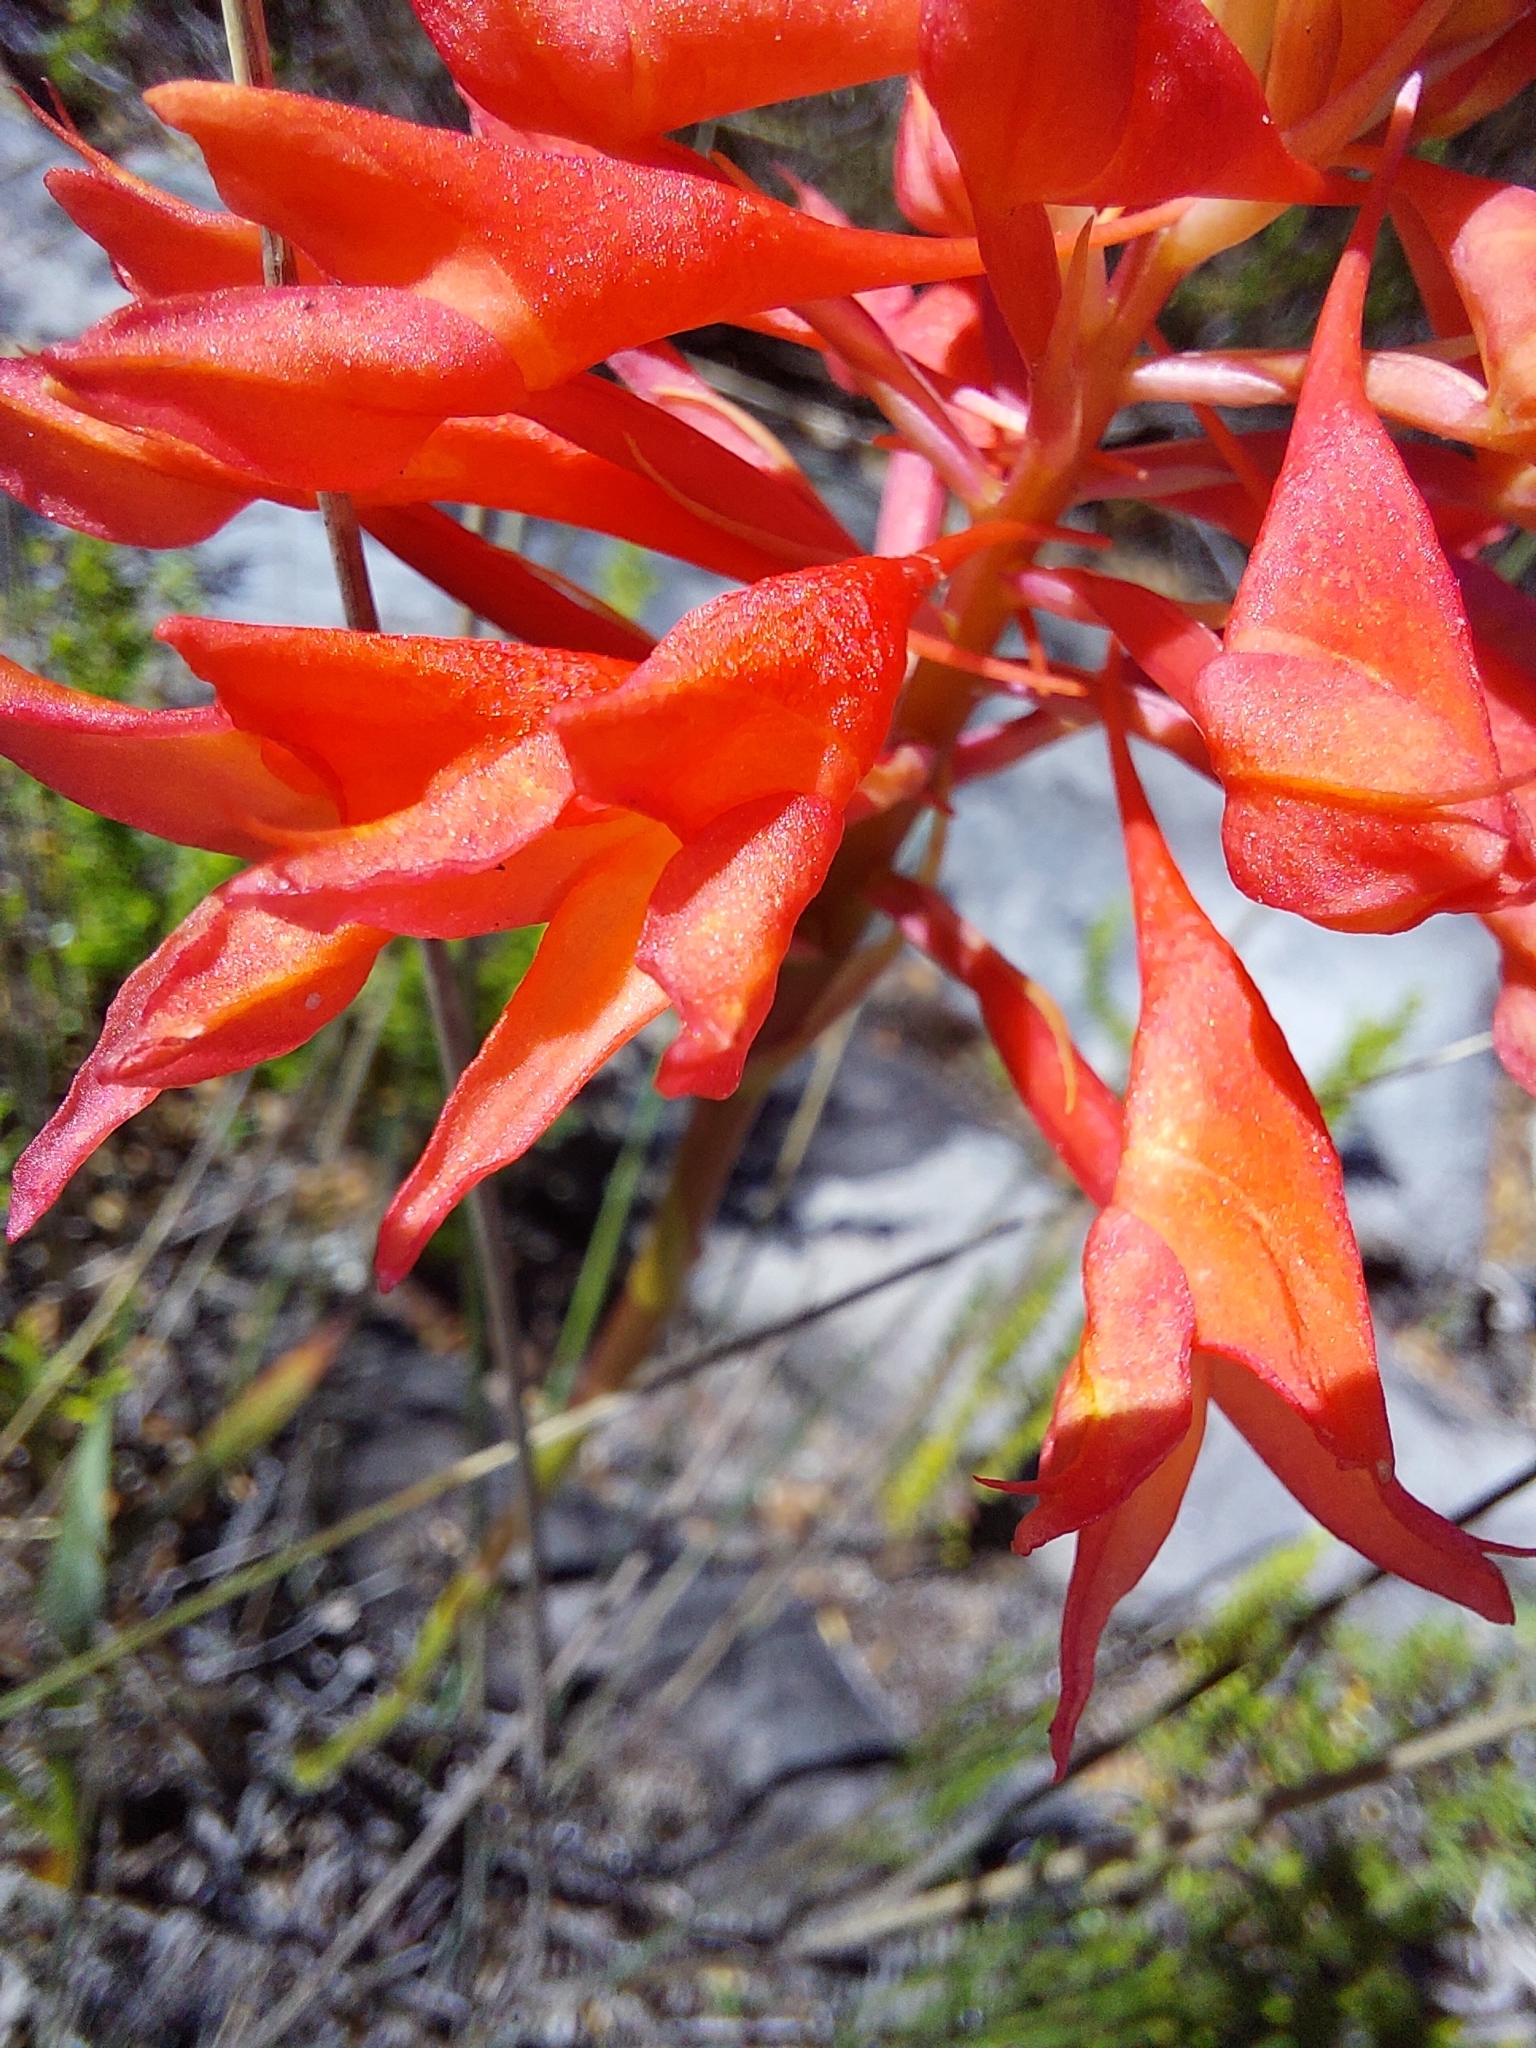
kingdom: Plantae
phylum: Tracheophyta
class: Liliopsida
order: Asparagales
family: Orchidaceae
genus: Disa
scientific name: Disa ferruginea
